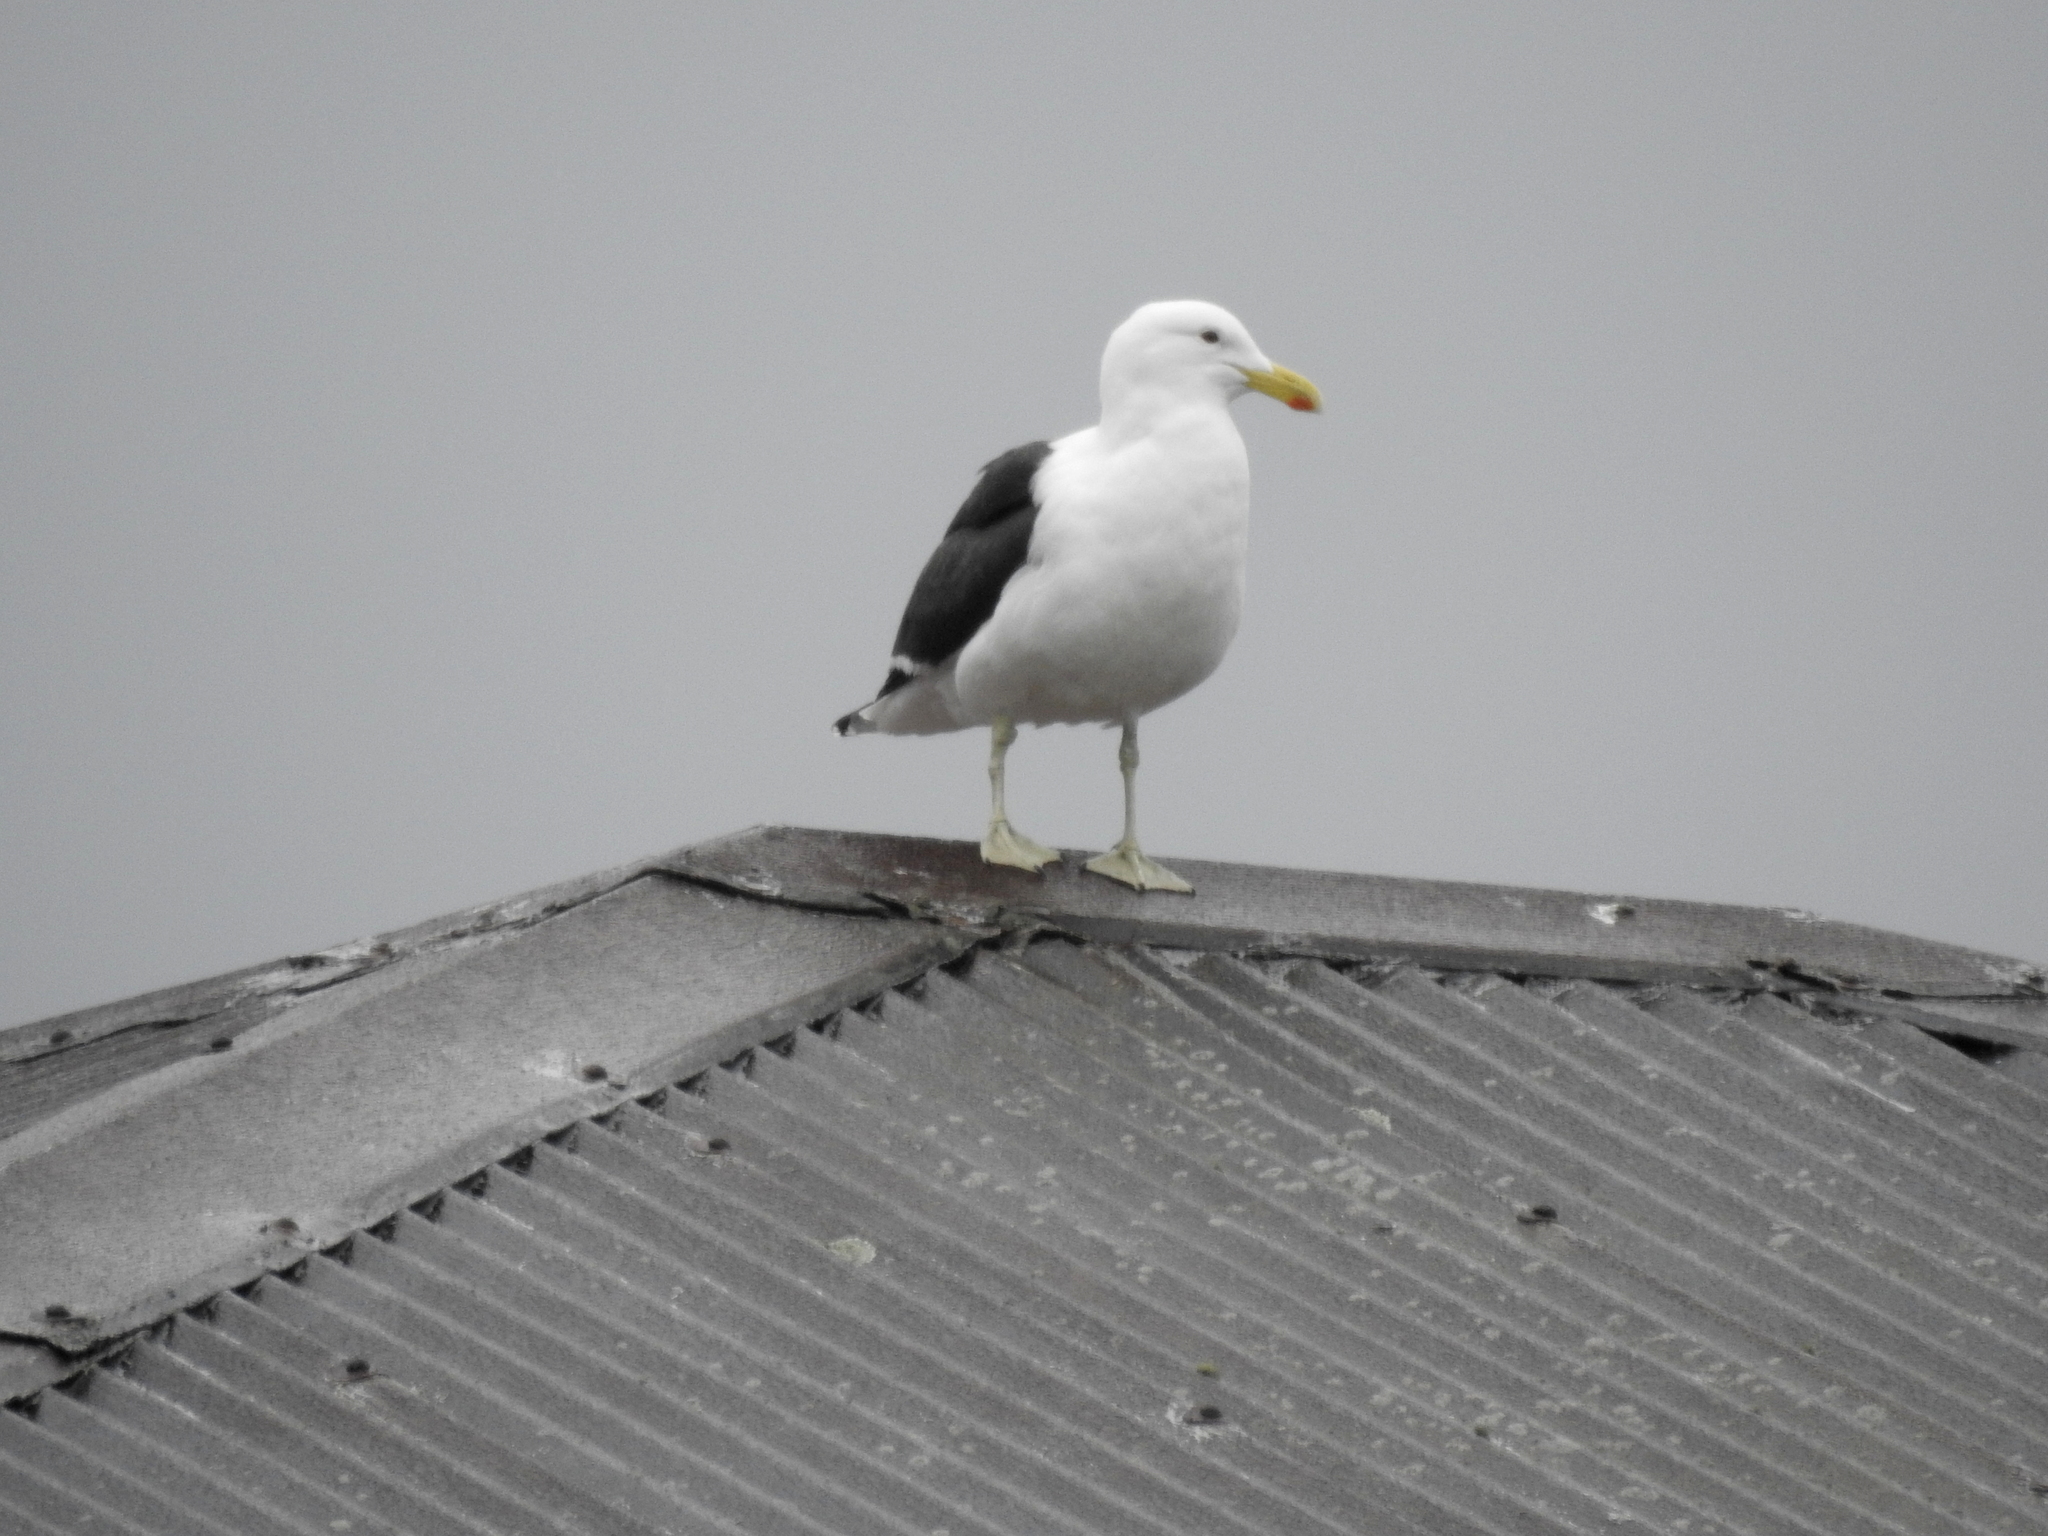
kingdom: Animalia
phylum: Chordata
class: Aves
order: Charadriiformes
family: Laridae
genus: Larus
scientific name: Larus dominicanus
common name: Kelp gull
